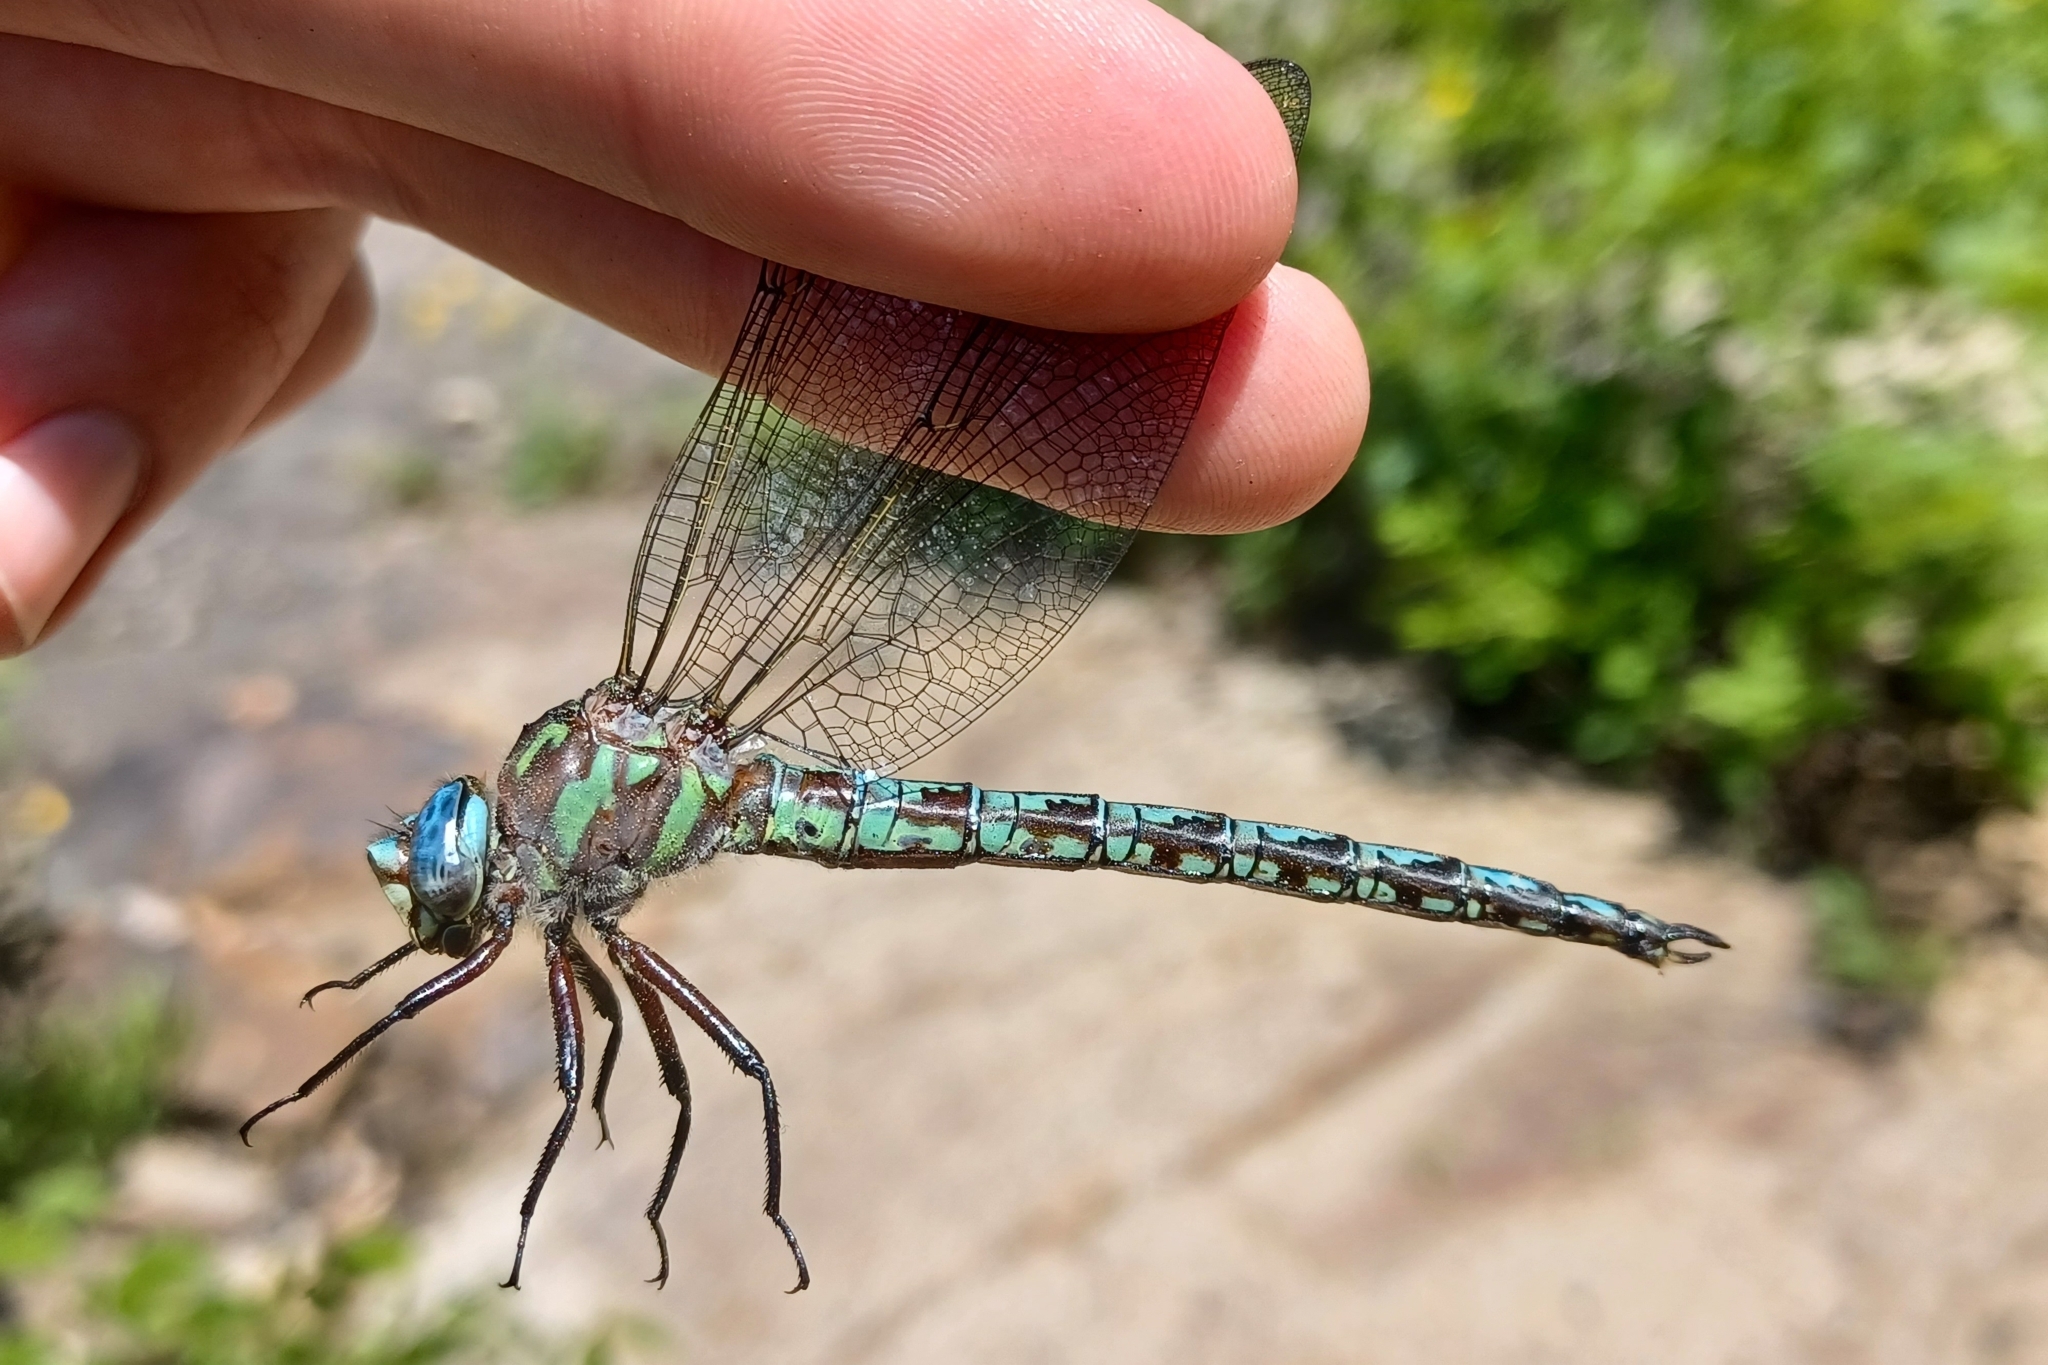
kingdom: Animalia
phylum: Arthropoda
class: Insecta
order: Odonata
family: Aeshnidae
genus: Nasiaeschna
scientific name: Nasiaeschna pentacantha
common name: Cyrano darner
